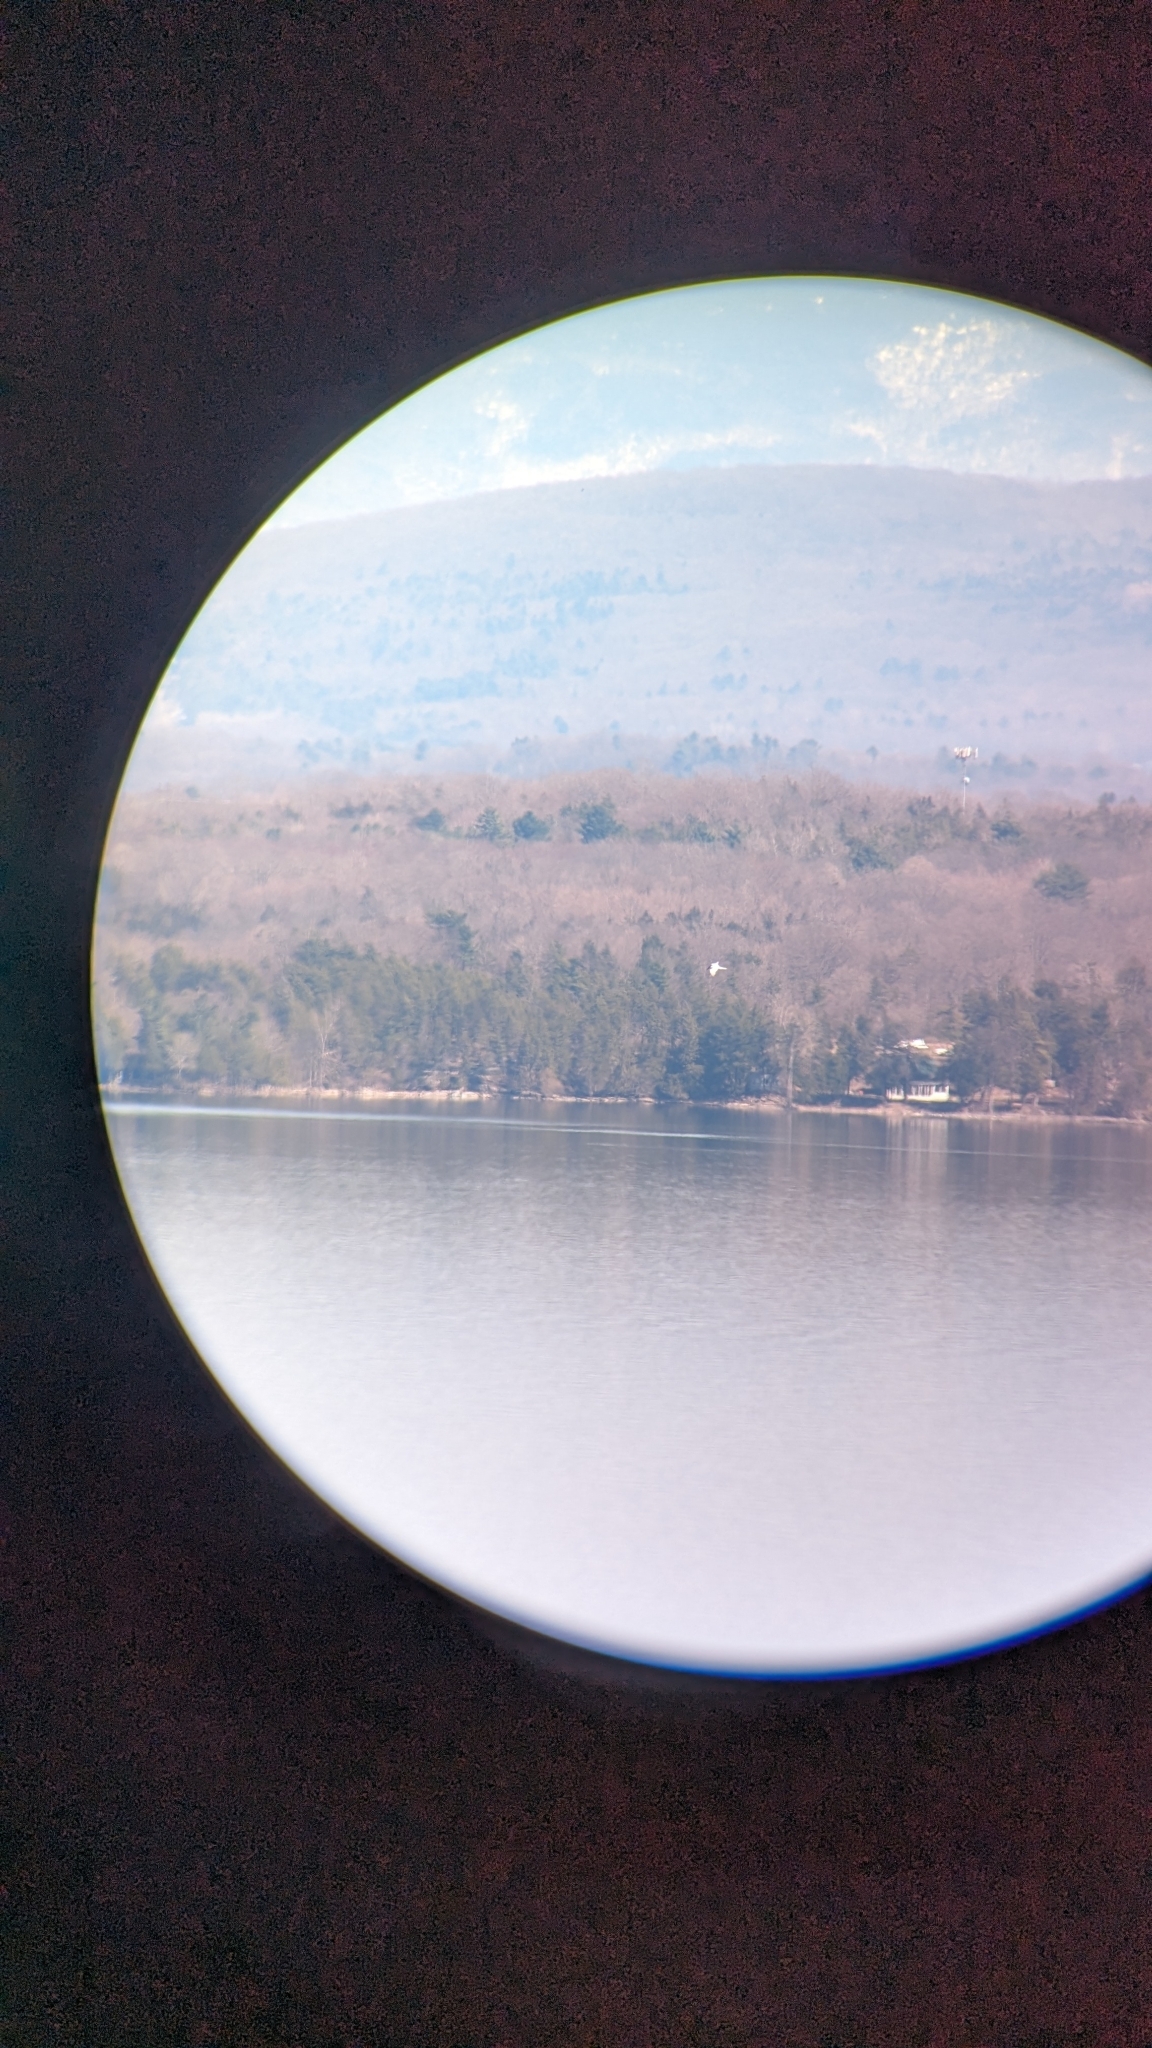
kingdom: Animalia
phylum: Chordata
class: Aves
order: Charadriiformes
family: Laridae
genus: Hydroprogne
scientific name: Hydroprogne caspia
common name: Caspian tern
